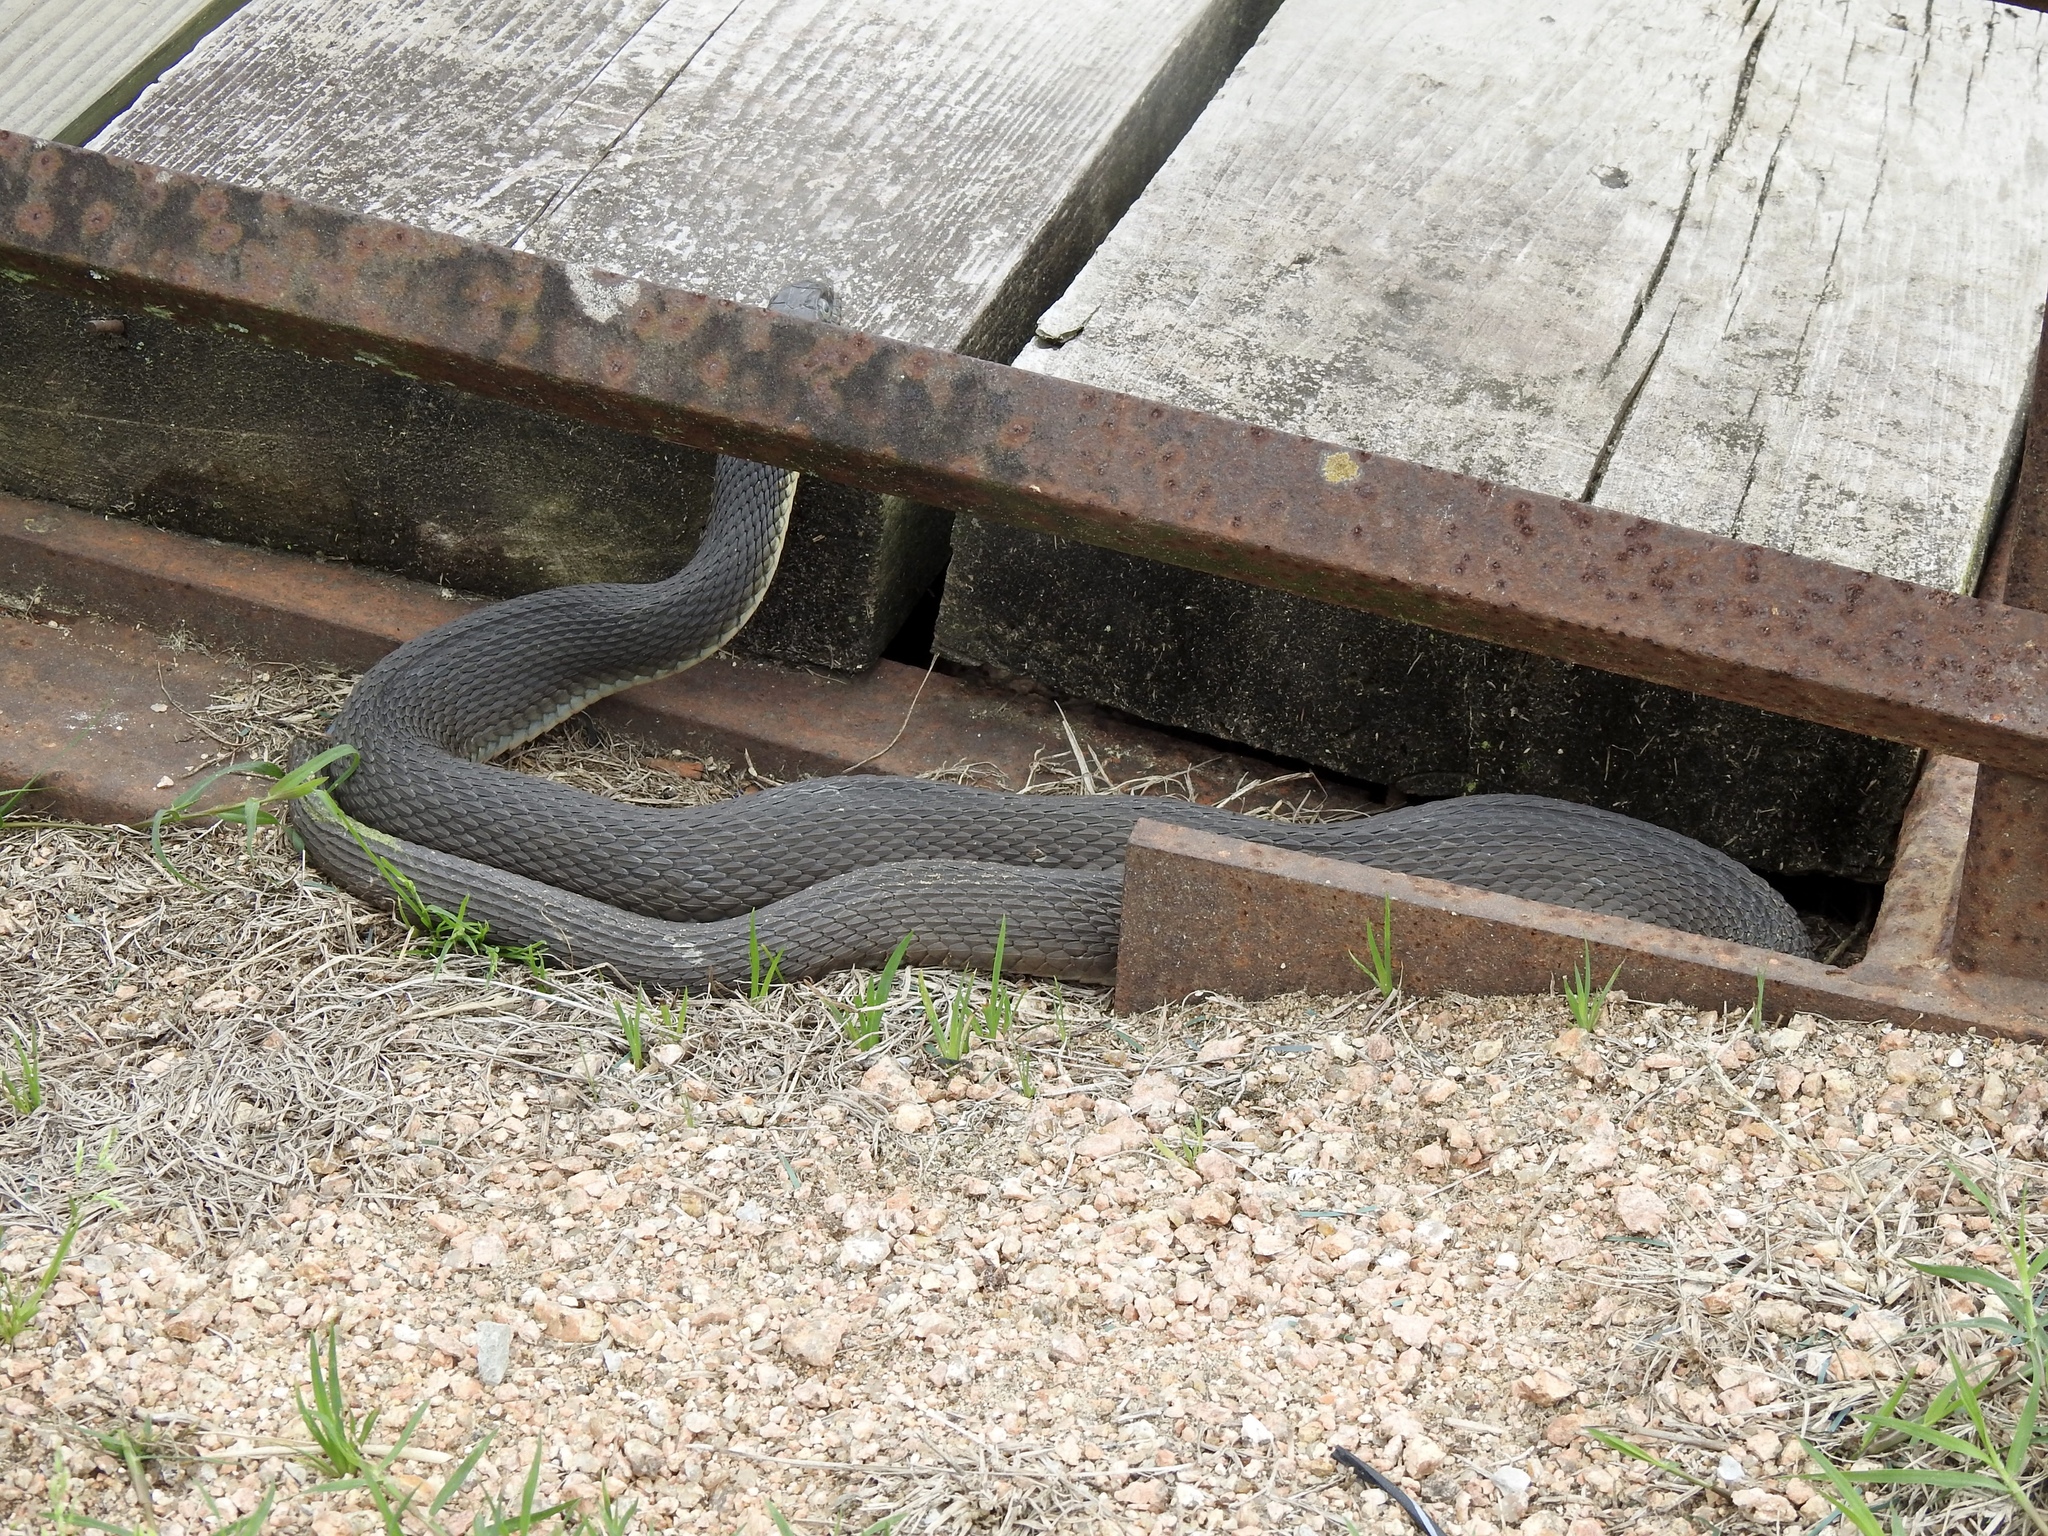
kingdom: Animalia
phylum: Chordata
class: Squamata
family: Colubridae
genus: Nerodia
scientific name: Nerodia erythrogaster
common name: Plainbelly water snake
